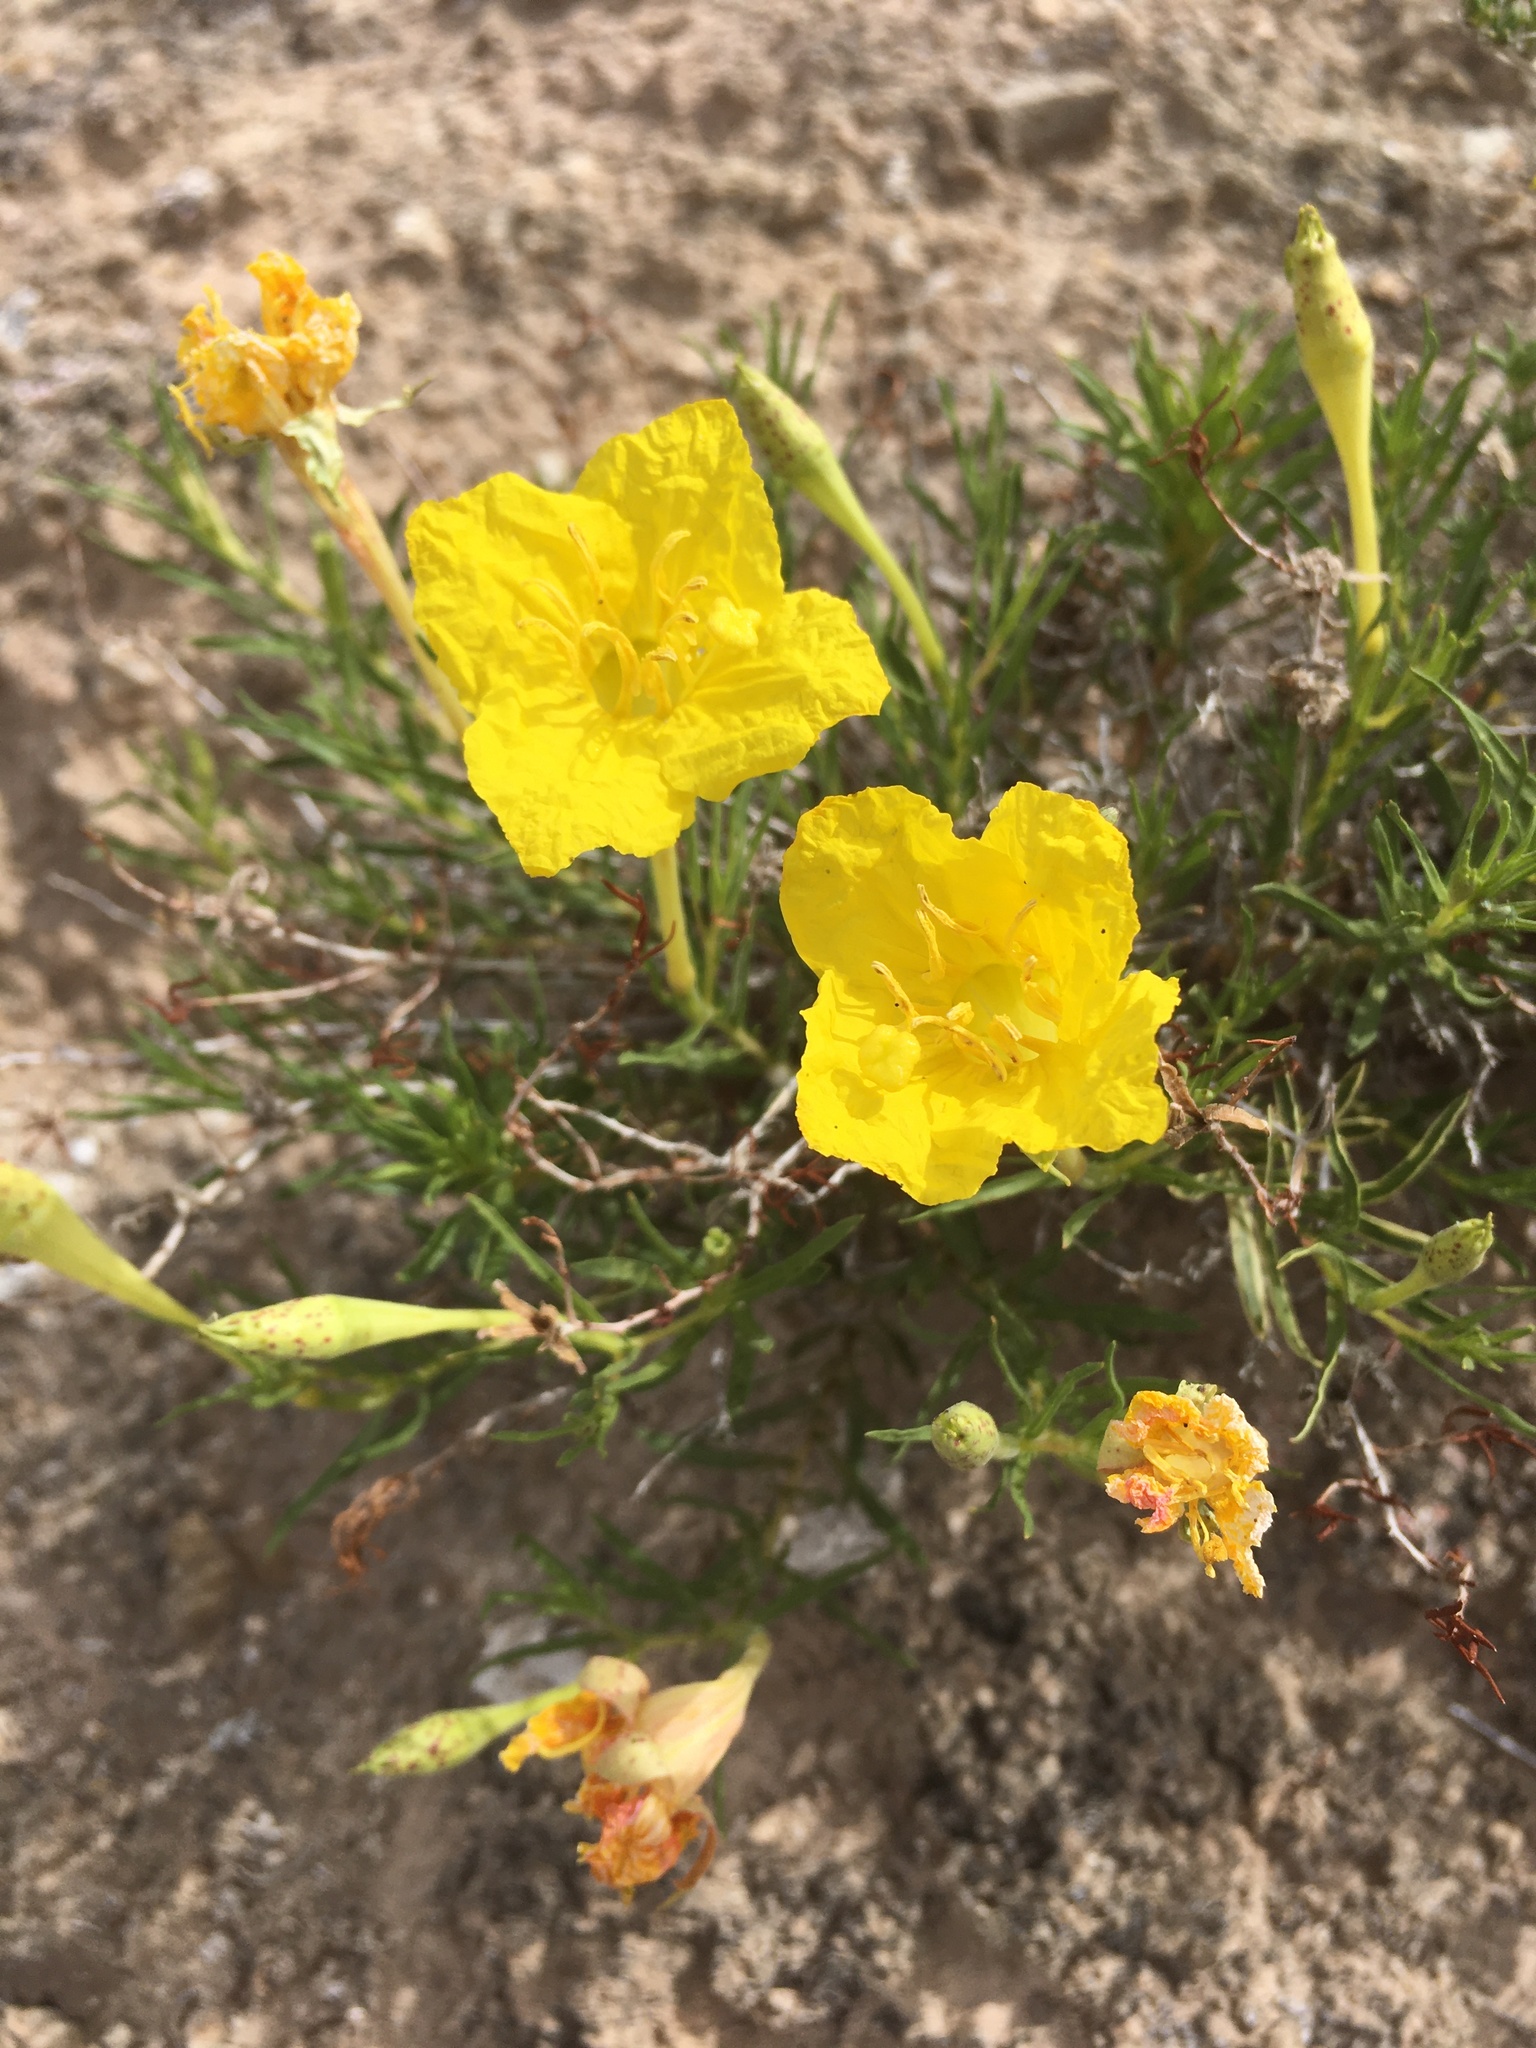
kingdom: Plantae
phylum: Tracheophyta
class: Magnoliopsida
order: Myrtales
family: Onagraceae
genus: Oenothera
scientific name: Oenothera hartwegii
